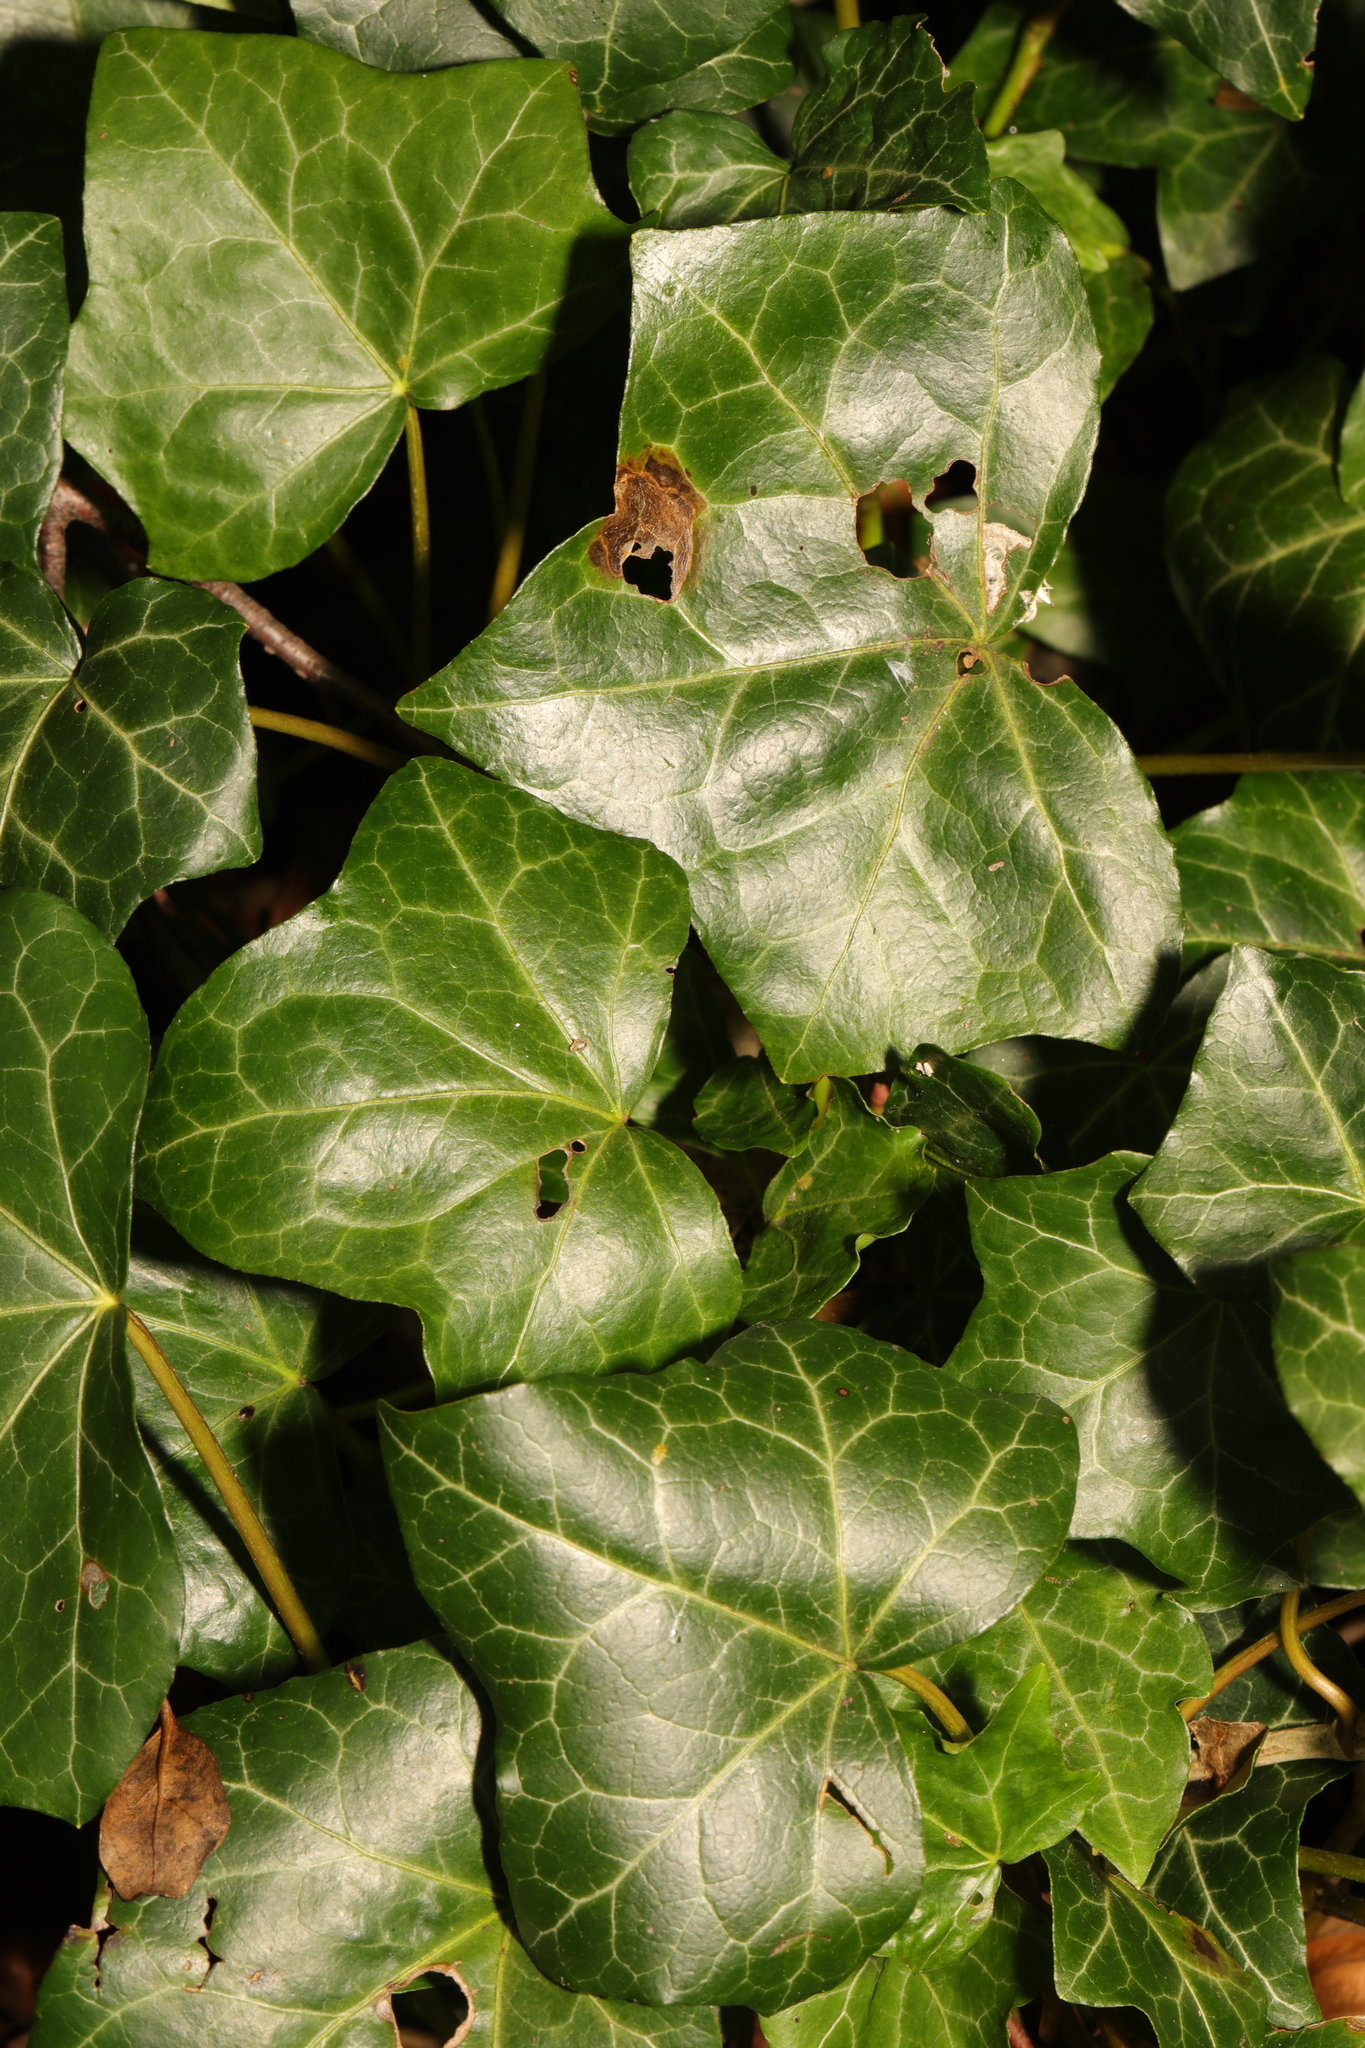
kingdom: Plantae
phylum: Tracheophyta
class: Magnoliopsida
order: Apiales
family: Araliaceae
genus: Hedera
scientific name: Hedera helix
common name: Ivy
